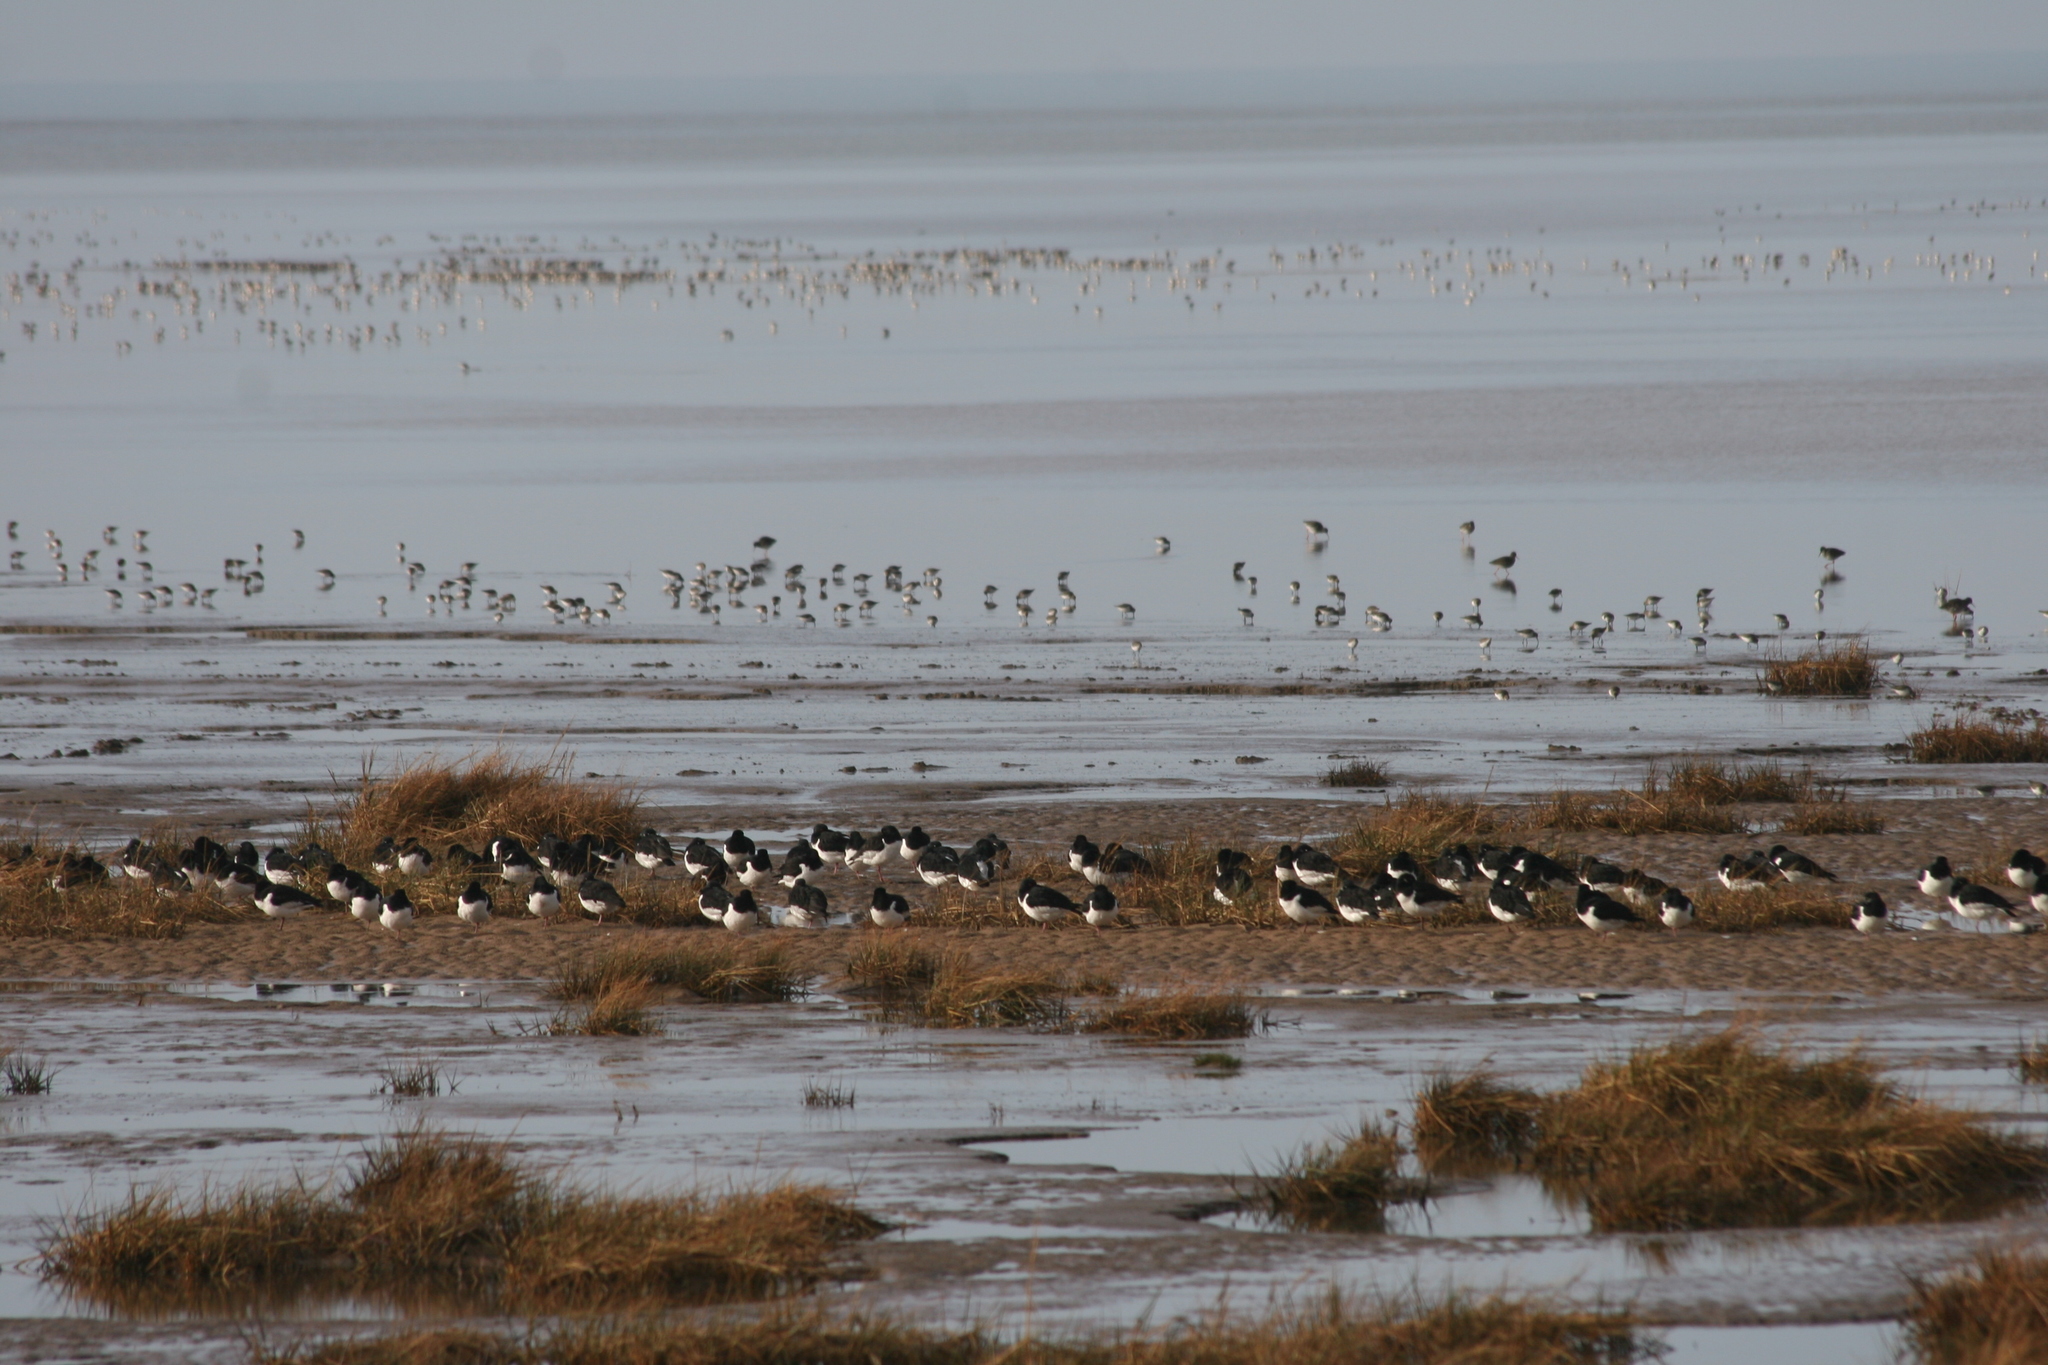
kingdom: Animalia
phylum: Chordata
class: Aves
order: Charadriiformes
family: Haematopodidae
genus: Haematopus
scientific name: Haematopus ostralegus
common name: Eurasian oystercatcher
